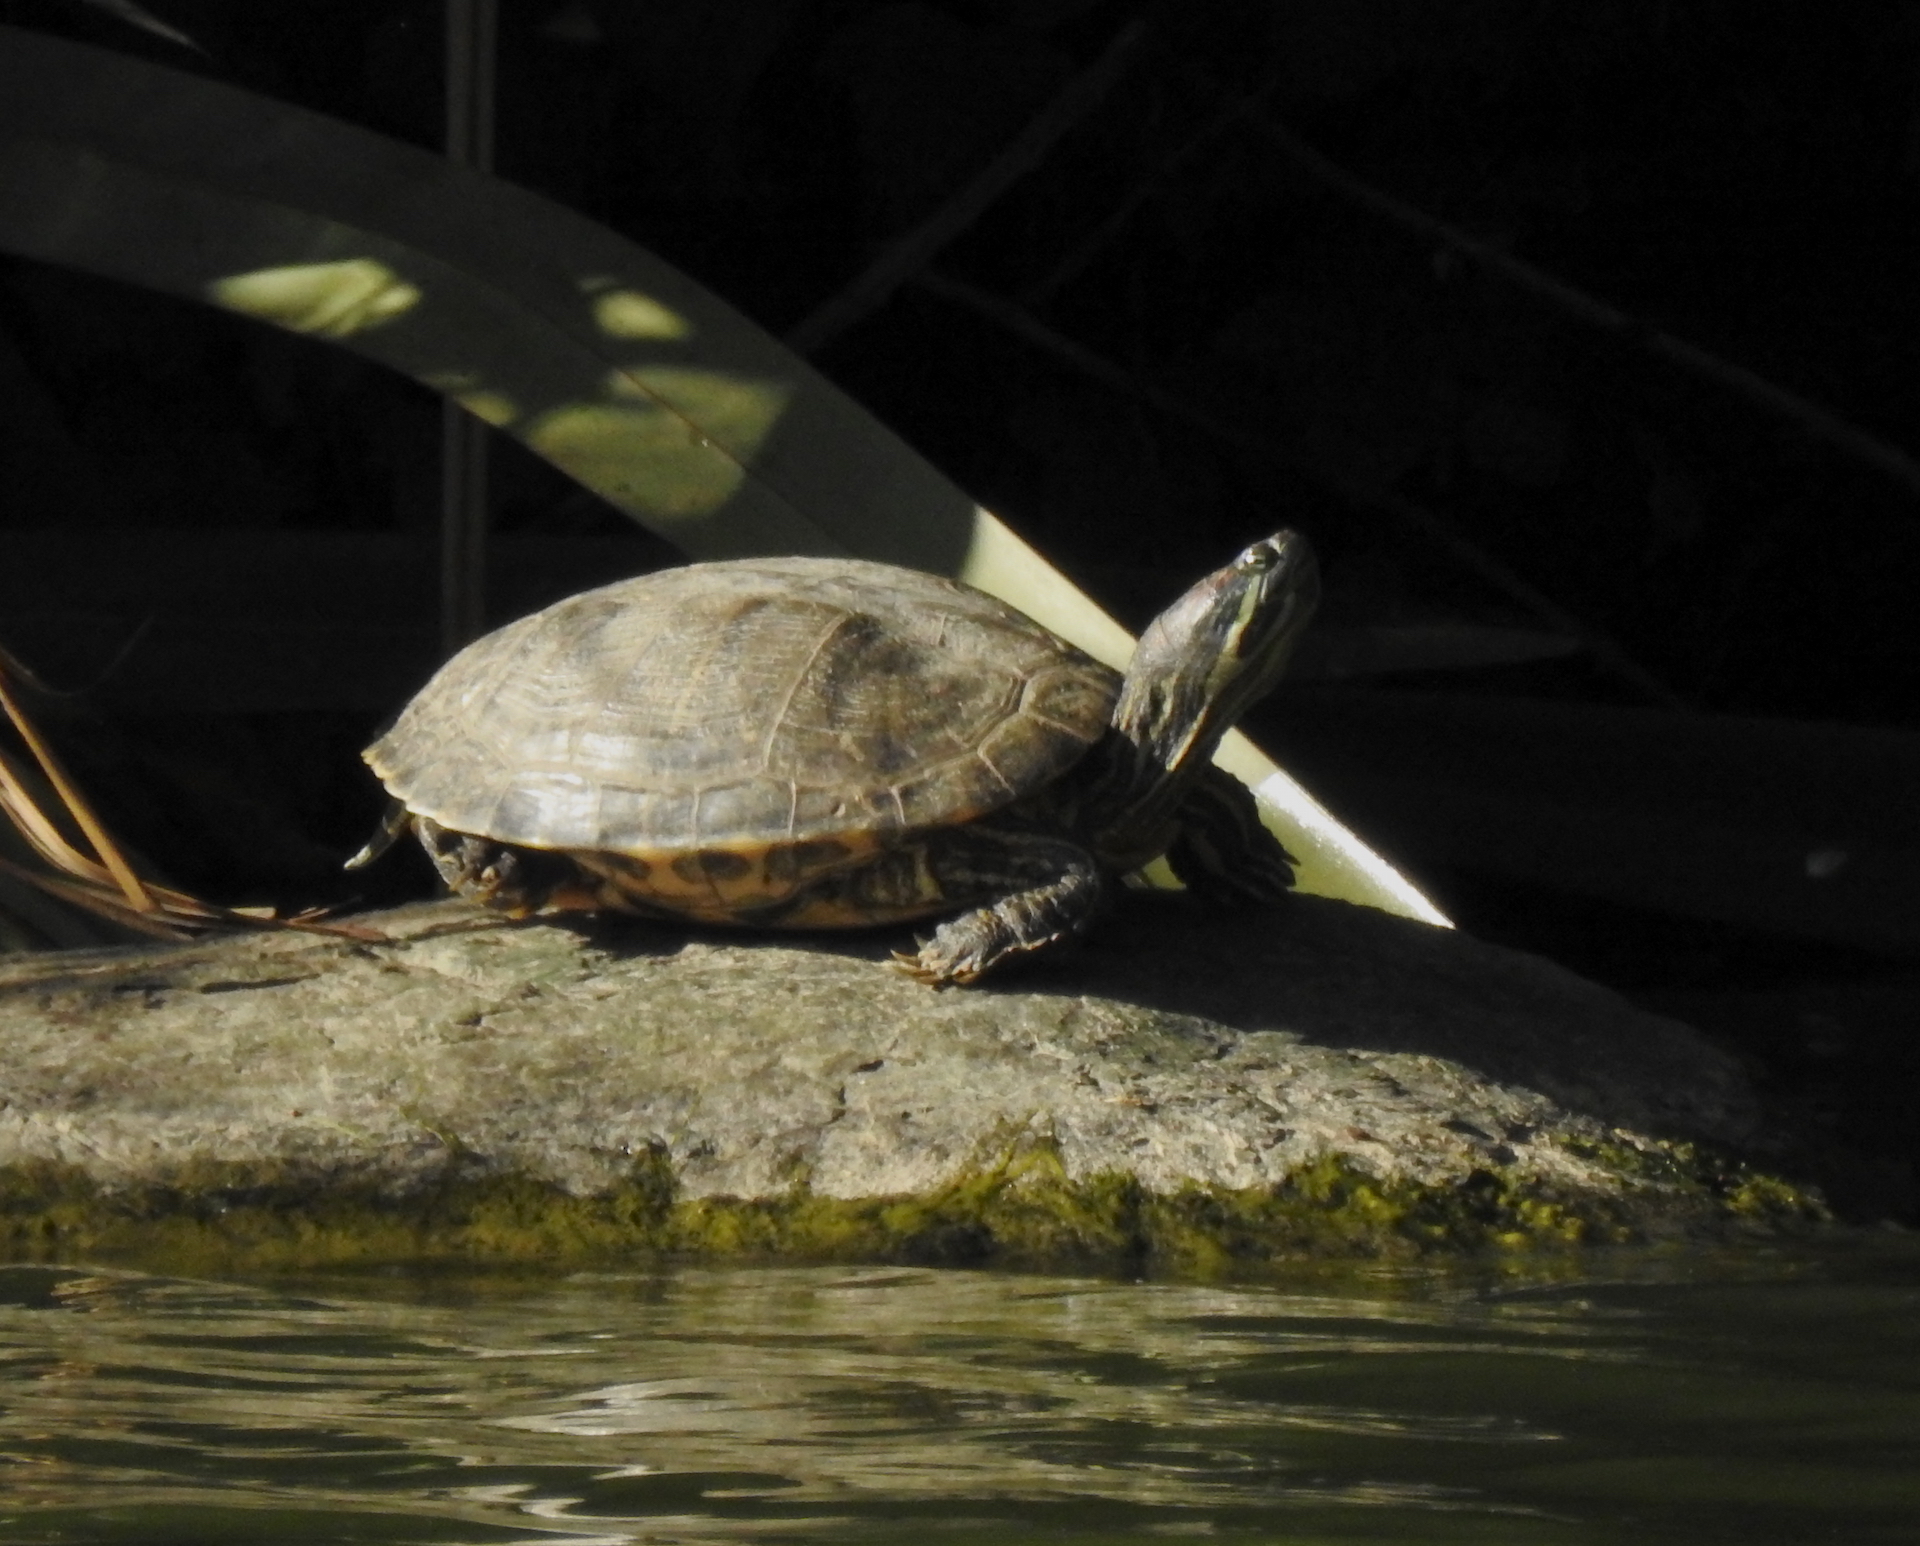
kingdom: Animalia
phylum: Chordata
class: Testudines
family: Emydidae
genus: Trachemys
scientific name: Trachemys scripta
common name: Slider
